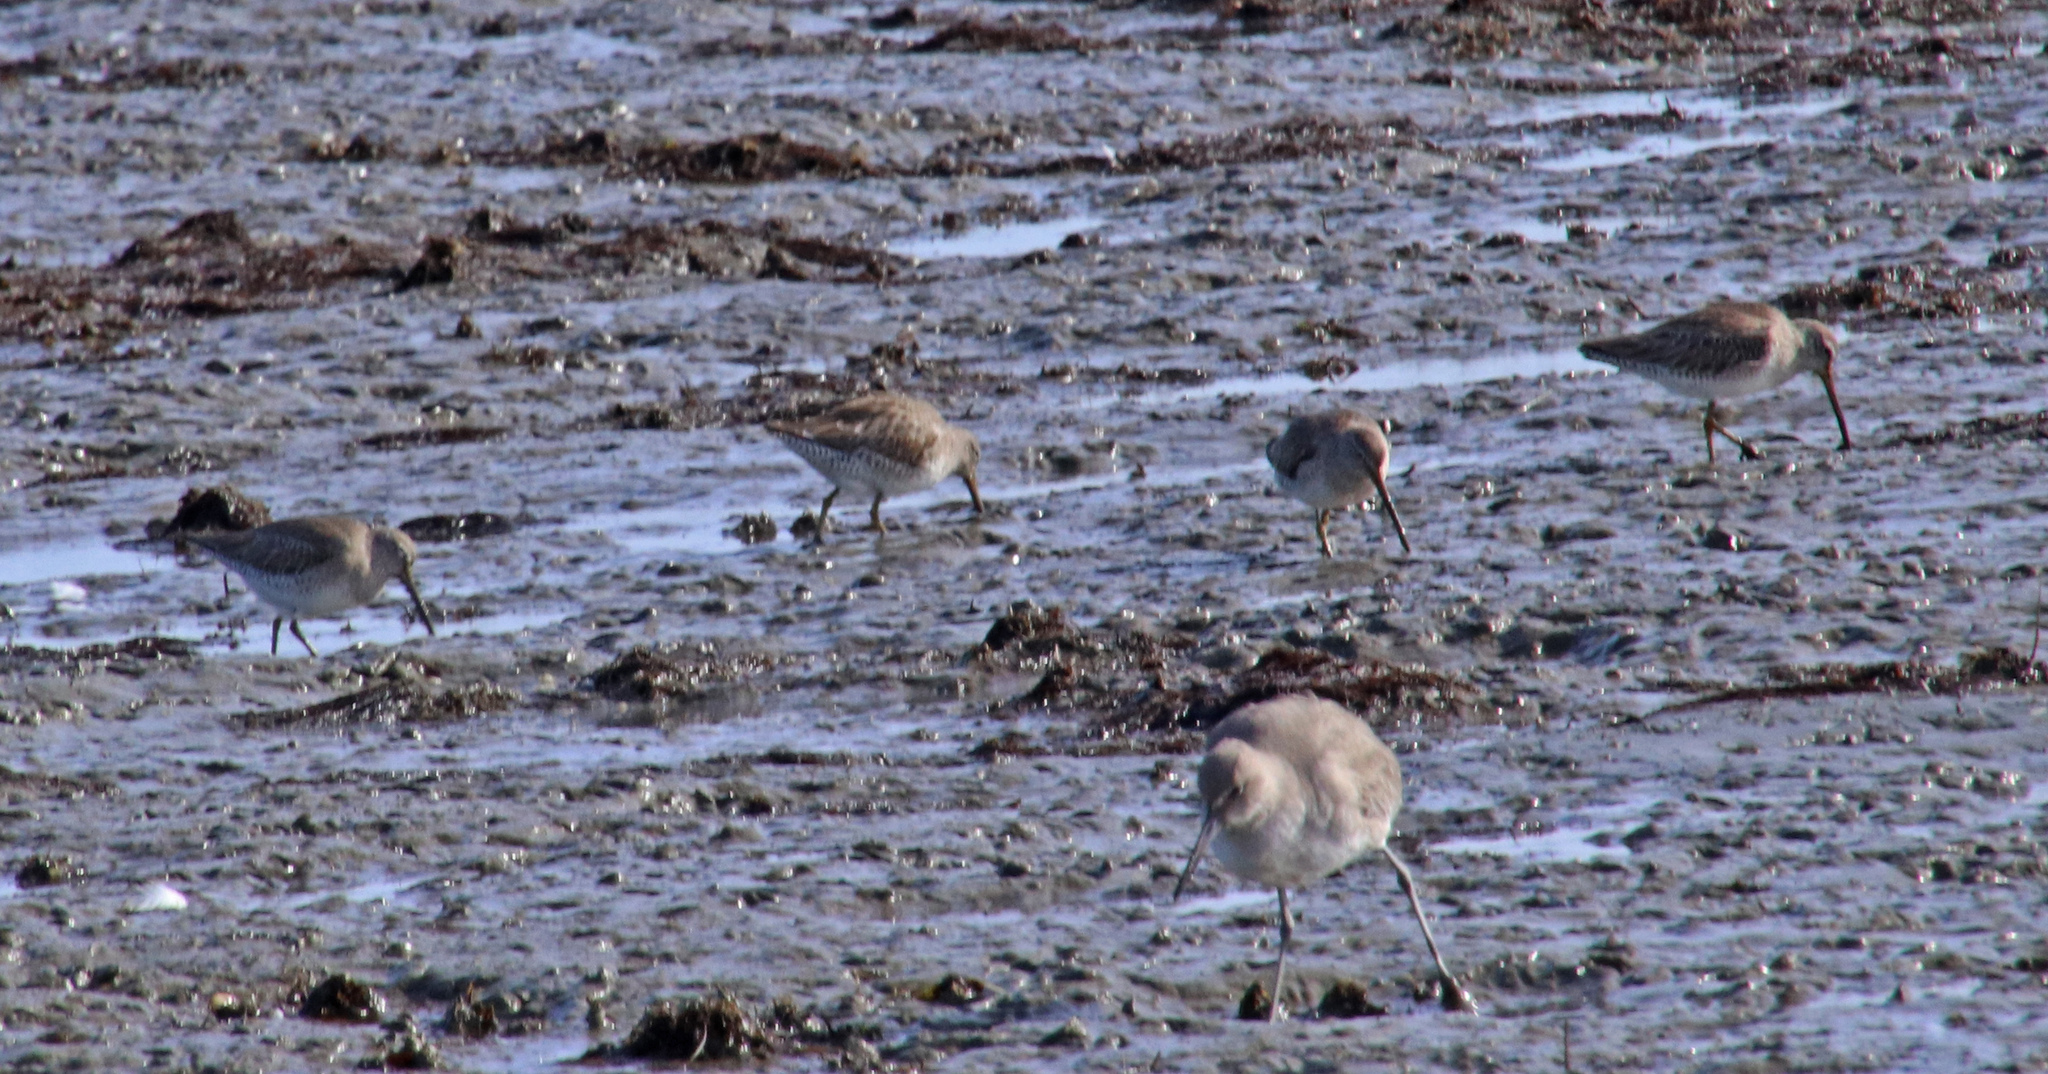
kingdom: Animalia
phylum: Chordata
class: Aves
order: Charadriiformes
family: Scolopacidae
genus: Limnodromus
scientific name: Limnodromus griseus
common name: Short-billed dowitcher
